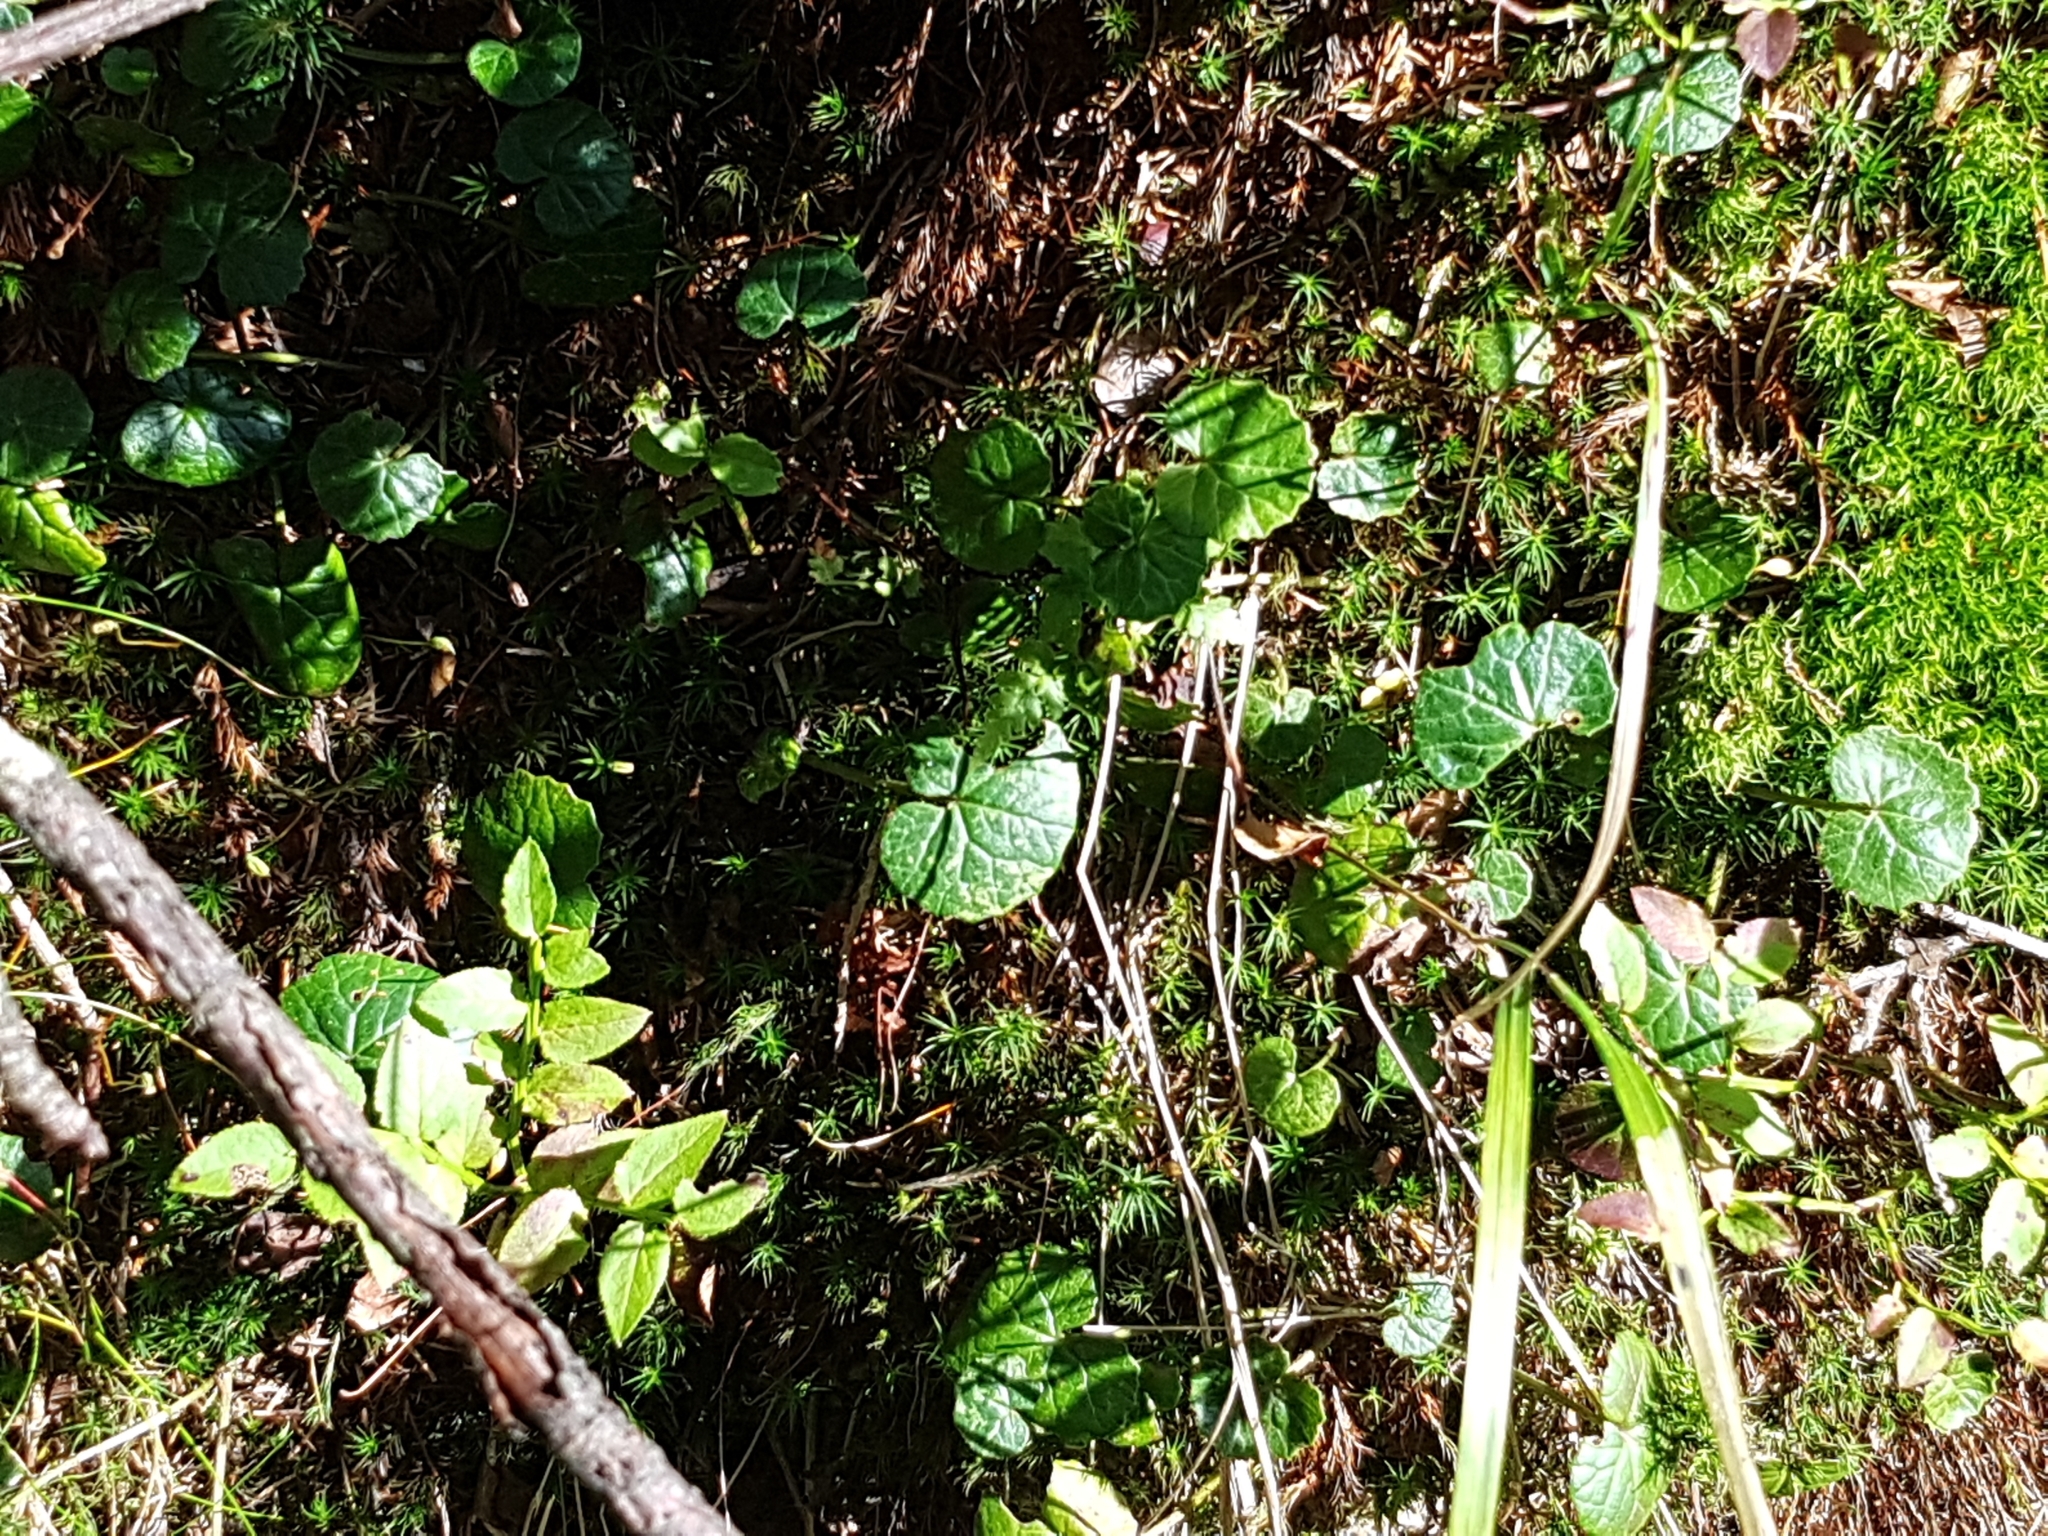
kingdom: Plantae
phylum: Tracheophyta
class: Magnoliopsida
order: Asterales
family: Asteraceae
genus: Homogyne
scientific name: Homogyne alpina
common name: Purple colt's-foot
